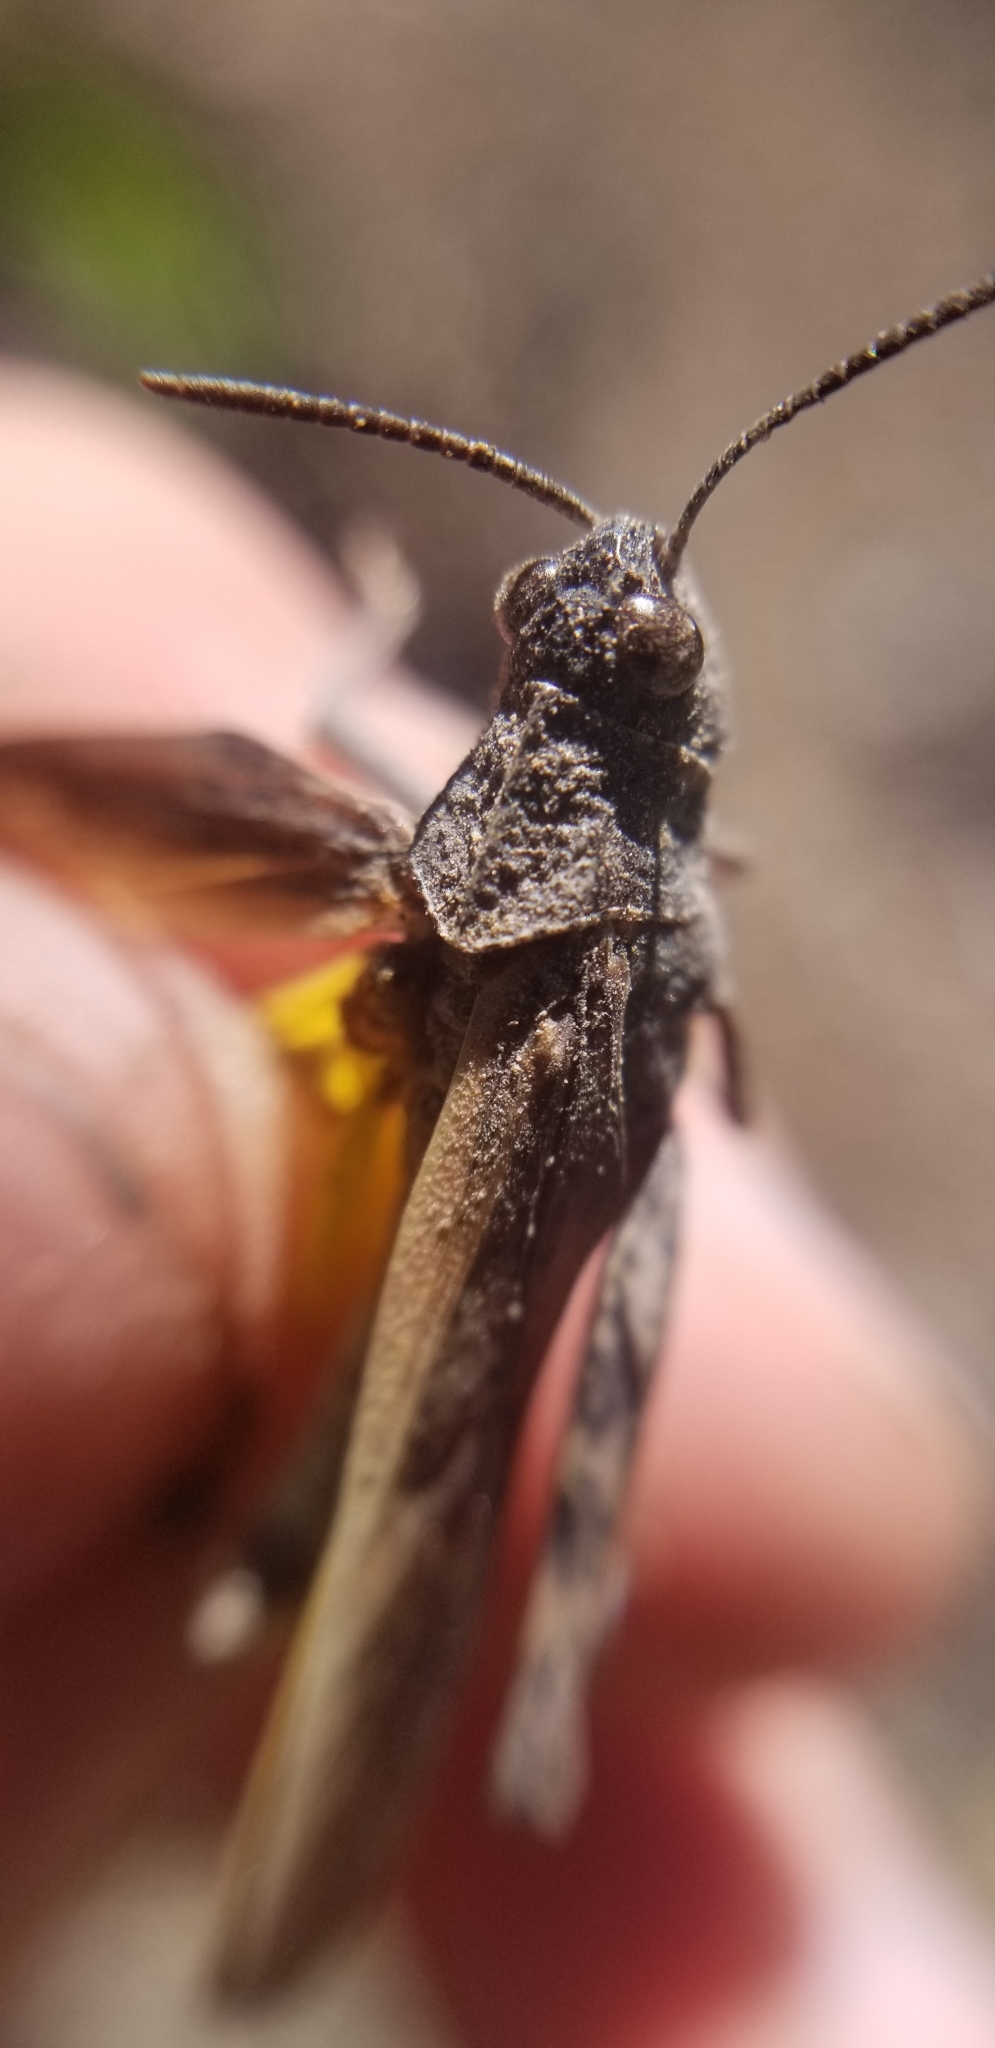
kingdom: Animalia
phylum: Arthropoda
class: Insecta
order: Orthoptera
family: Acrididae
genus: Arphia
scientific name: Arphia behrensi
